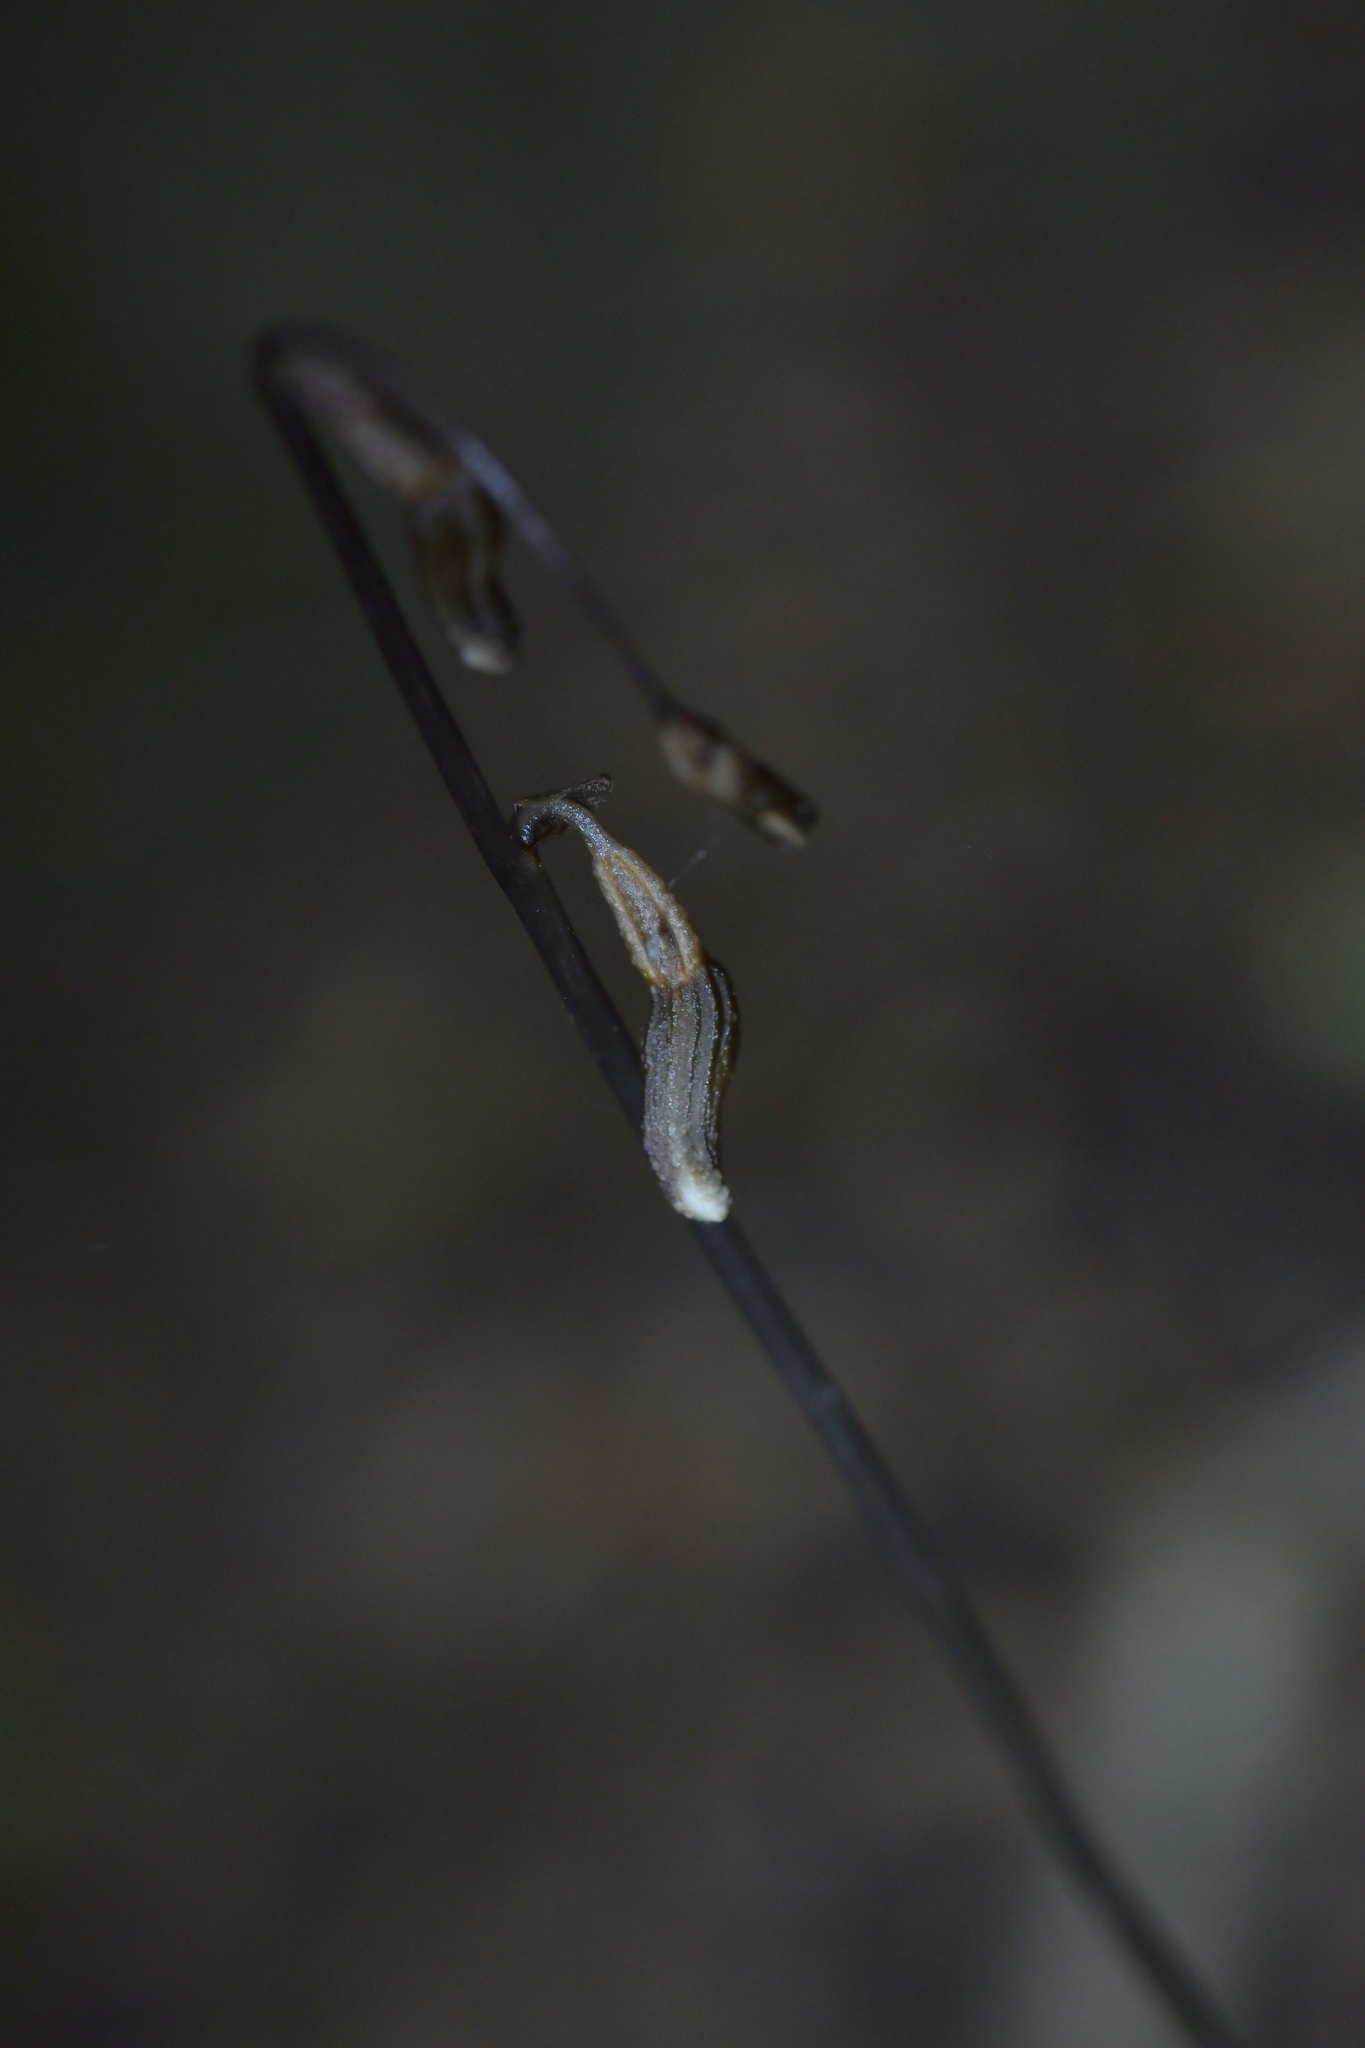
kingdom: Plantae
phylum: Tracheophyta
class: Liliopsida
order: Asparagales
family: Orchidaceae
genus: Gastrodia
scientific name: Gastrodia minor
